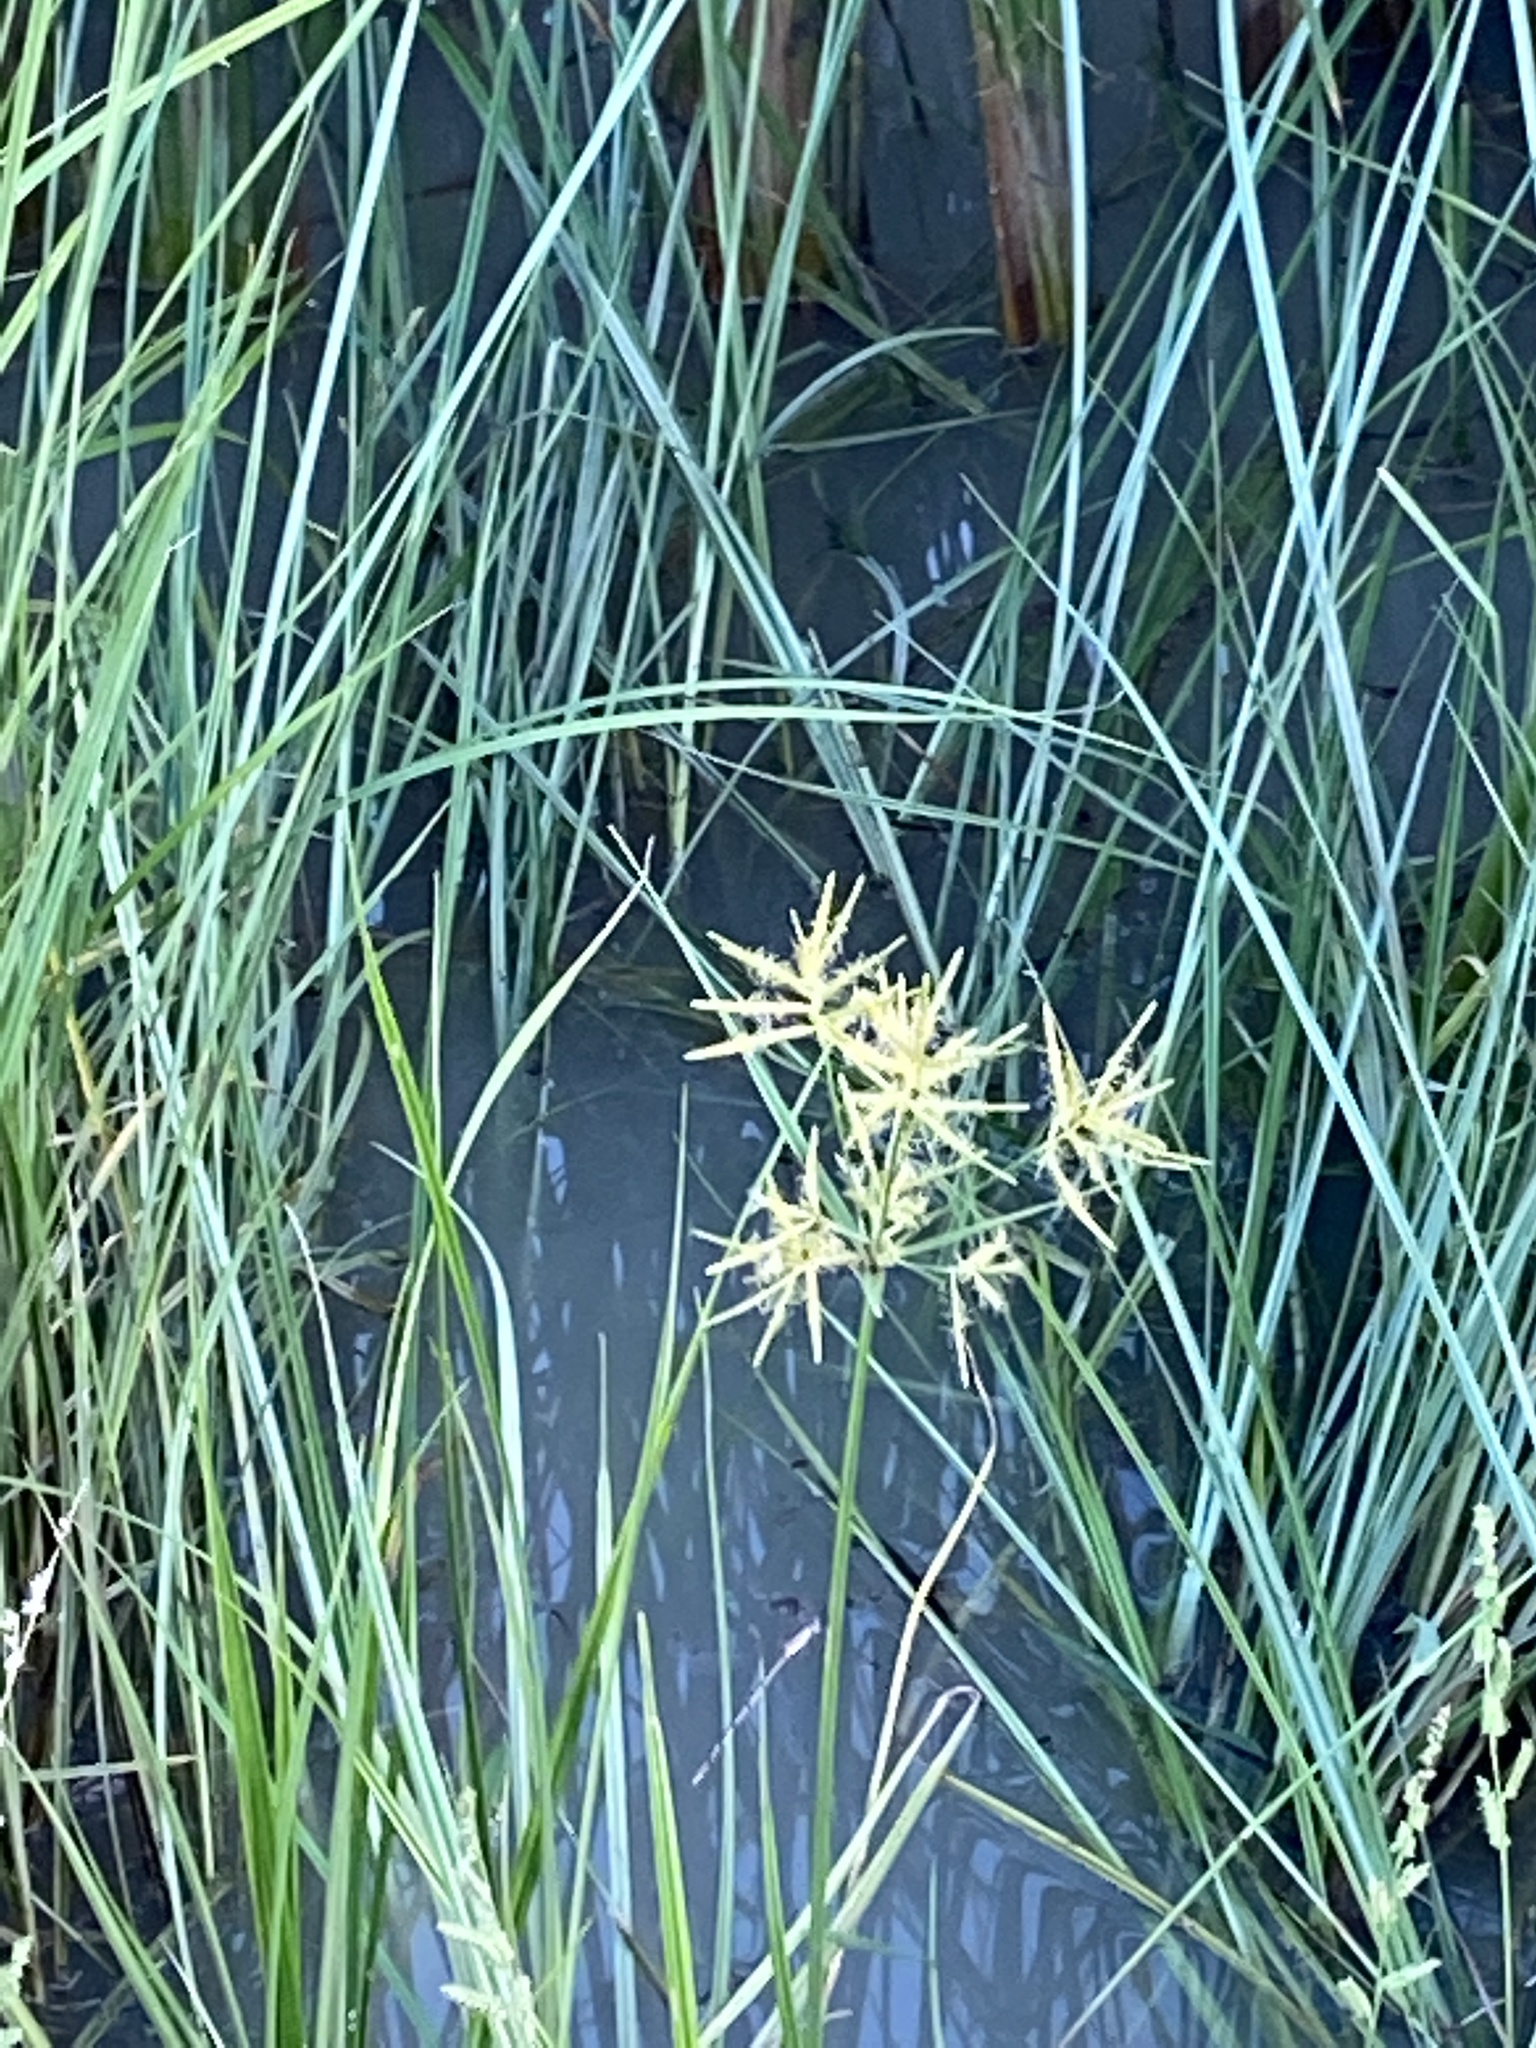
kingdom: Plantae
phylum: Tracheophyta
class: Liliopsida
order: Poales
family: Cyperaceae
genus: Cyperus
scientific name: Cyperus esculentus
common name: Yellow nutsedge
